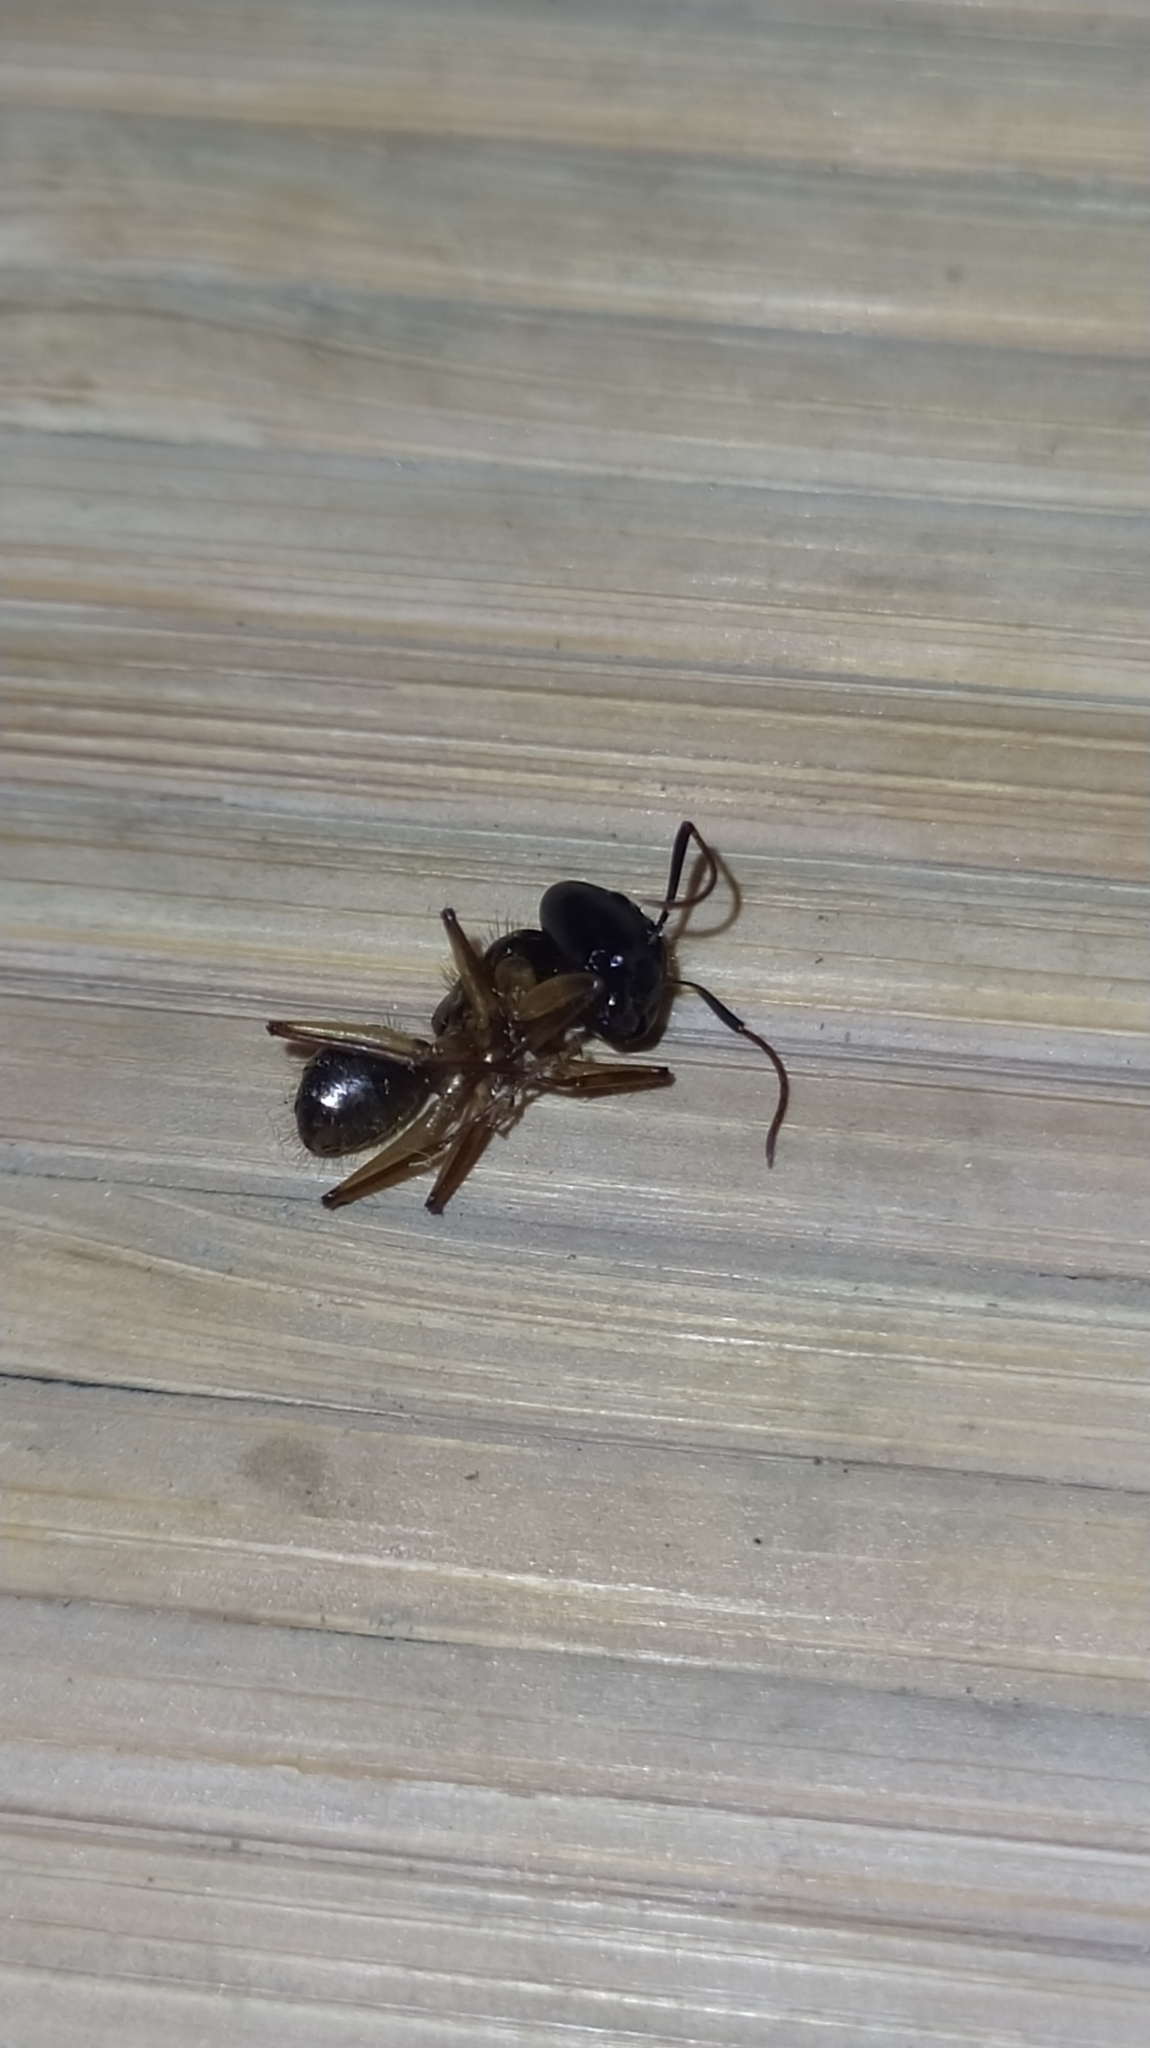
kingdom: Animalia
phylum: Arthropoda
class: Insecta
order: Hymenoptera
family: Formicidae
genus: Camponotus
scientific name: Camponotus atriceps
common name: Florida carpenter ant
